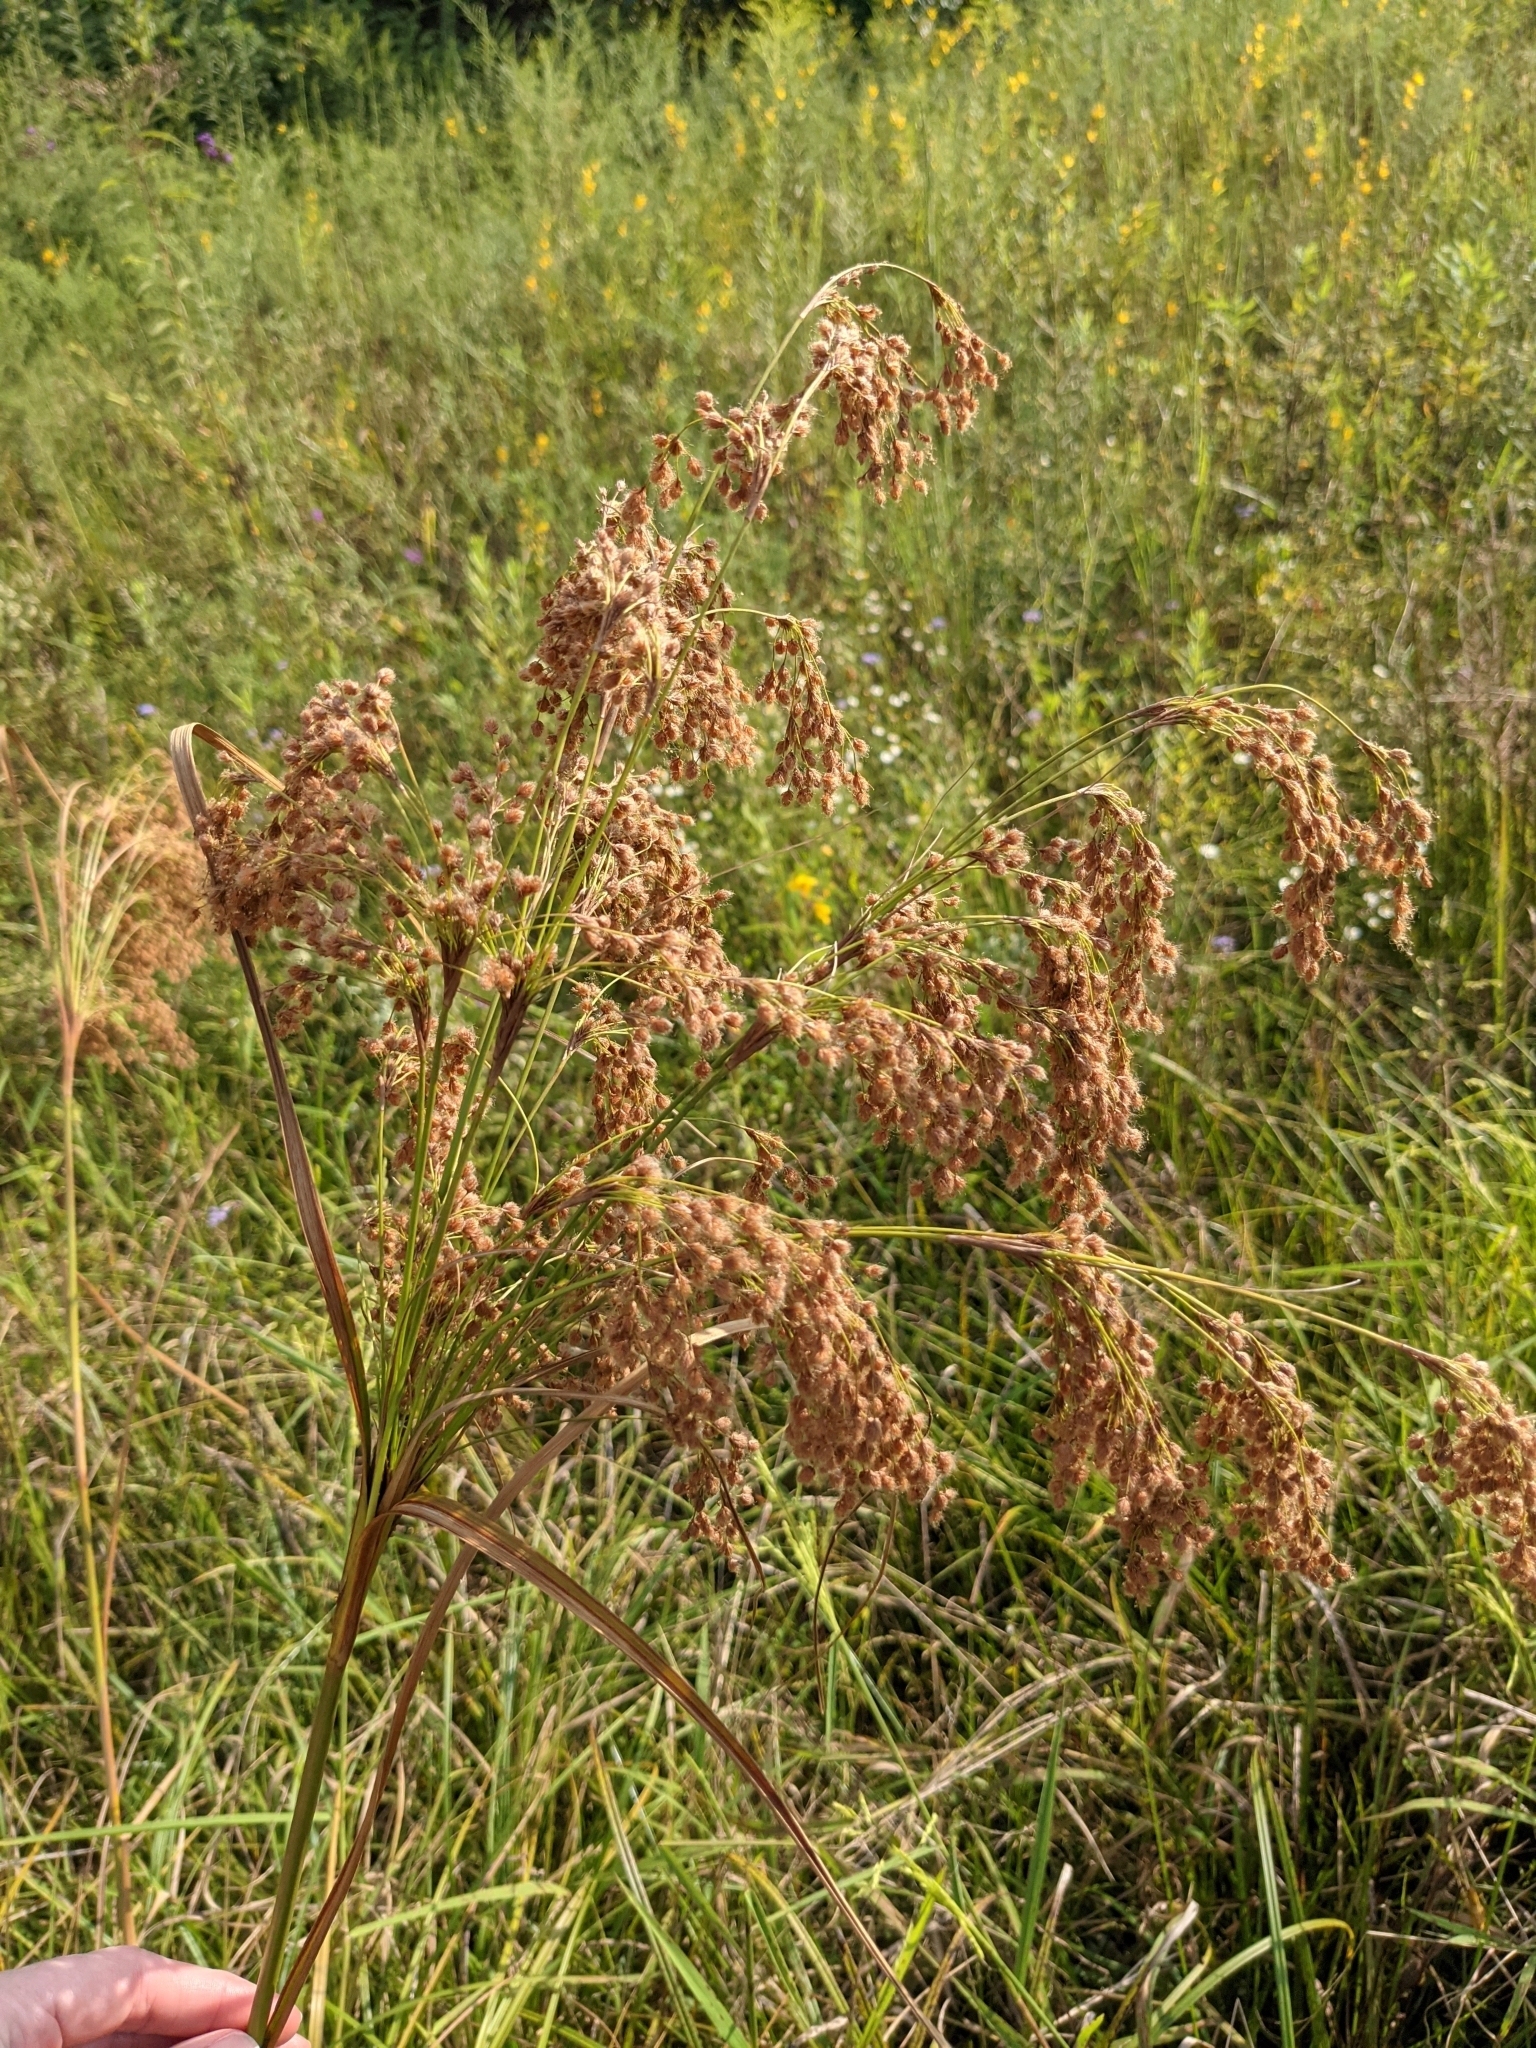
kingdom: Plantae
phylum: Tracheophyta
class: Liliopsida
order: Poales
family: Cyperaceae
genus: Scirpus
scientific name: Scirpus cyperinus
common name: Black-sheathed bulrush
